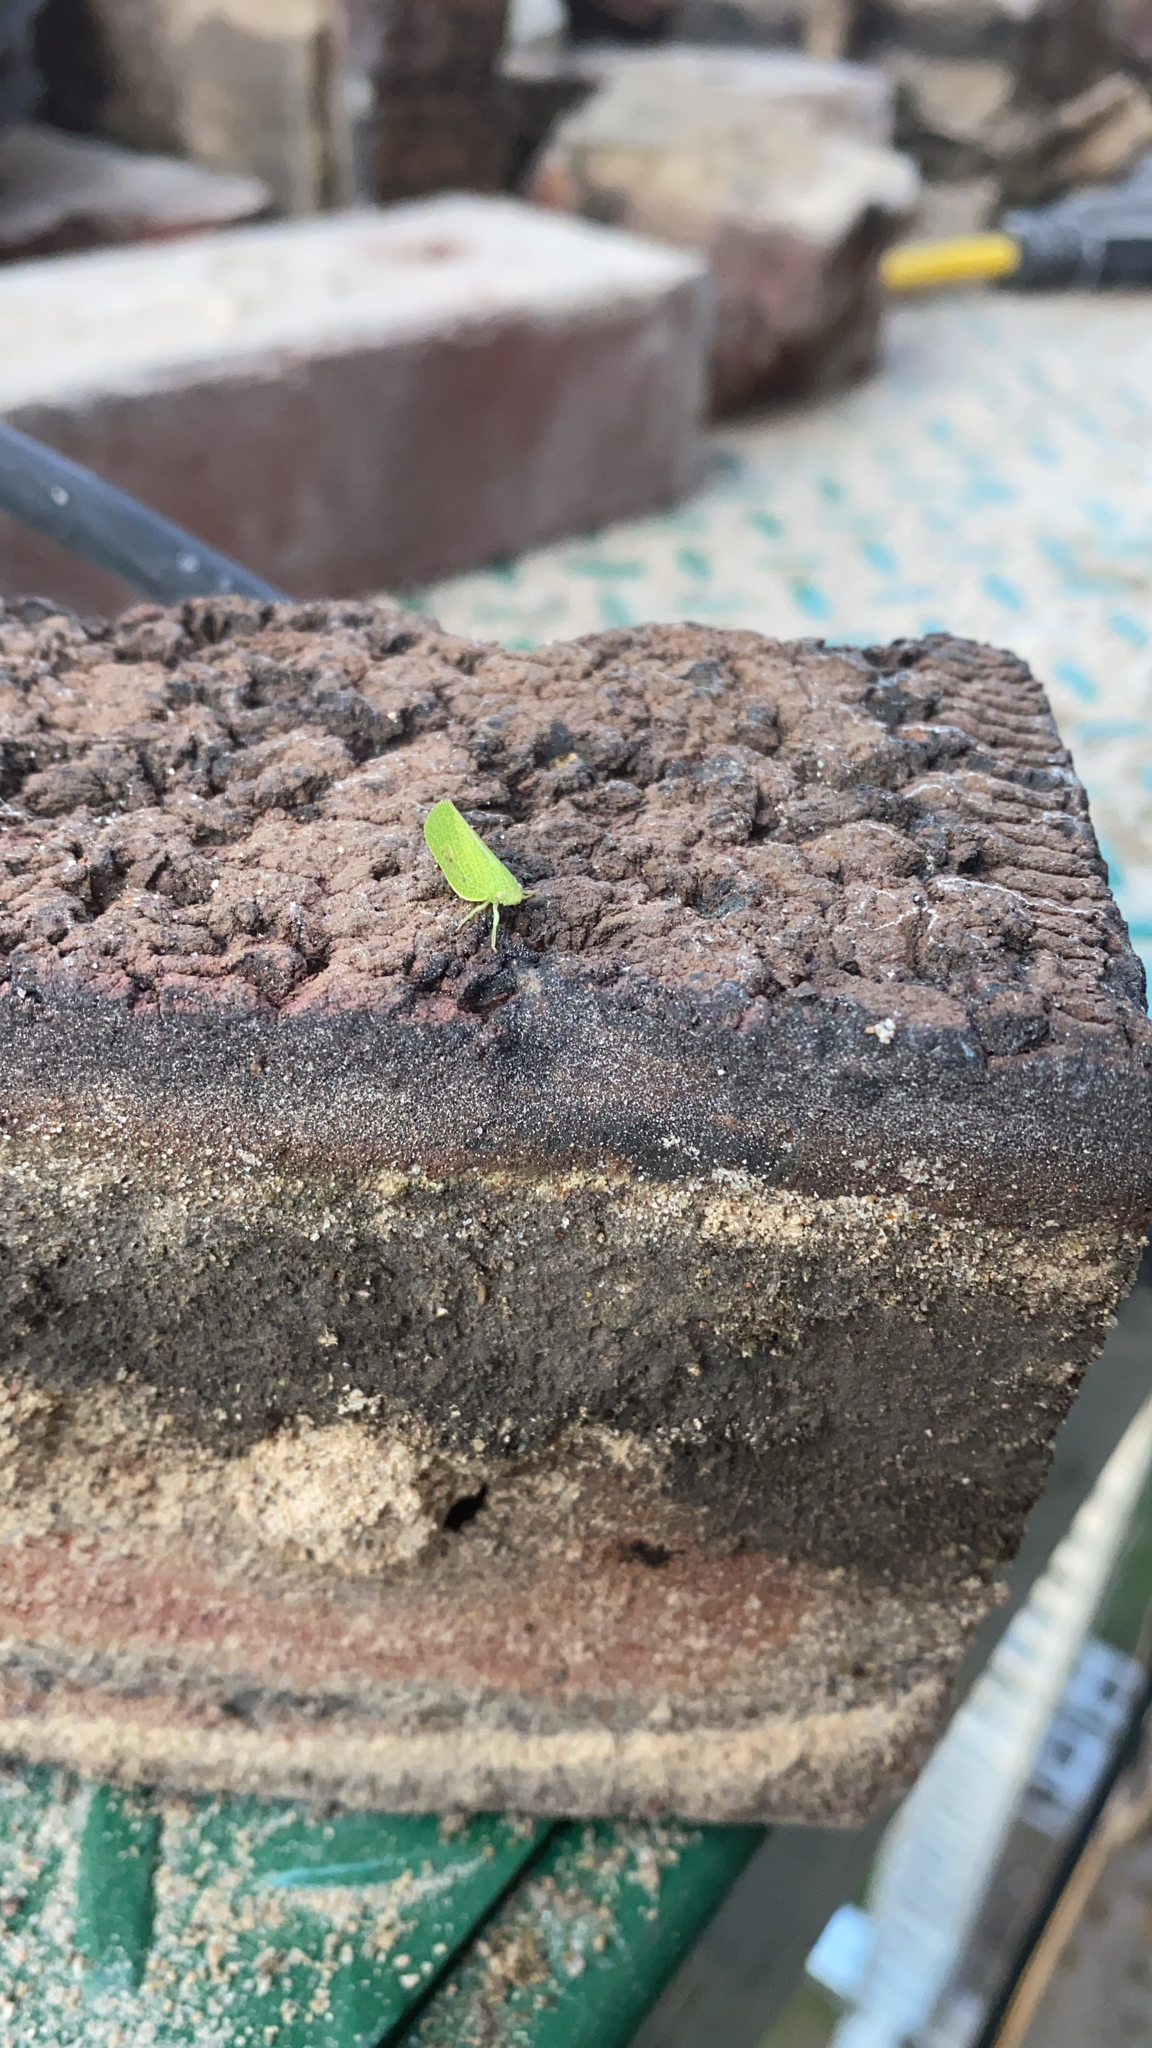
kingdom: Animalia
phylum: Arthropoda
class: Insecta
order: Hemiptera
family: Acanaloniidae
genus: Acanalonia
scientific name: Acanalonia conica
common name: Green cone-headed planthopper
